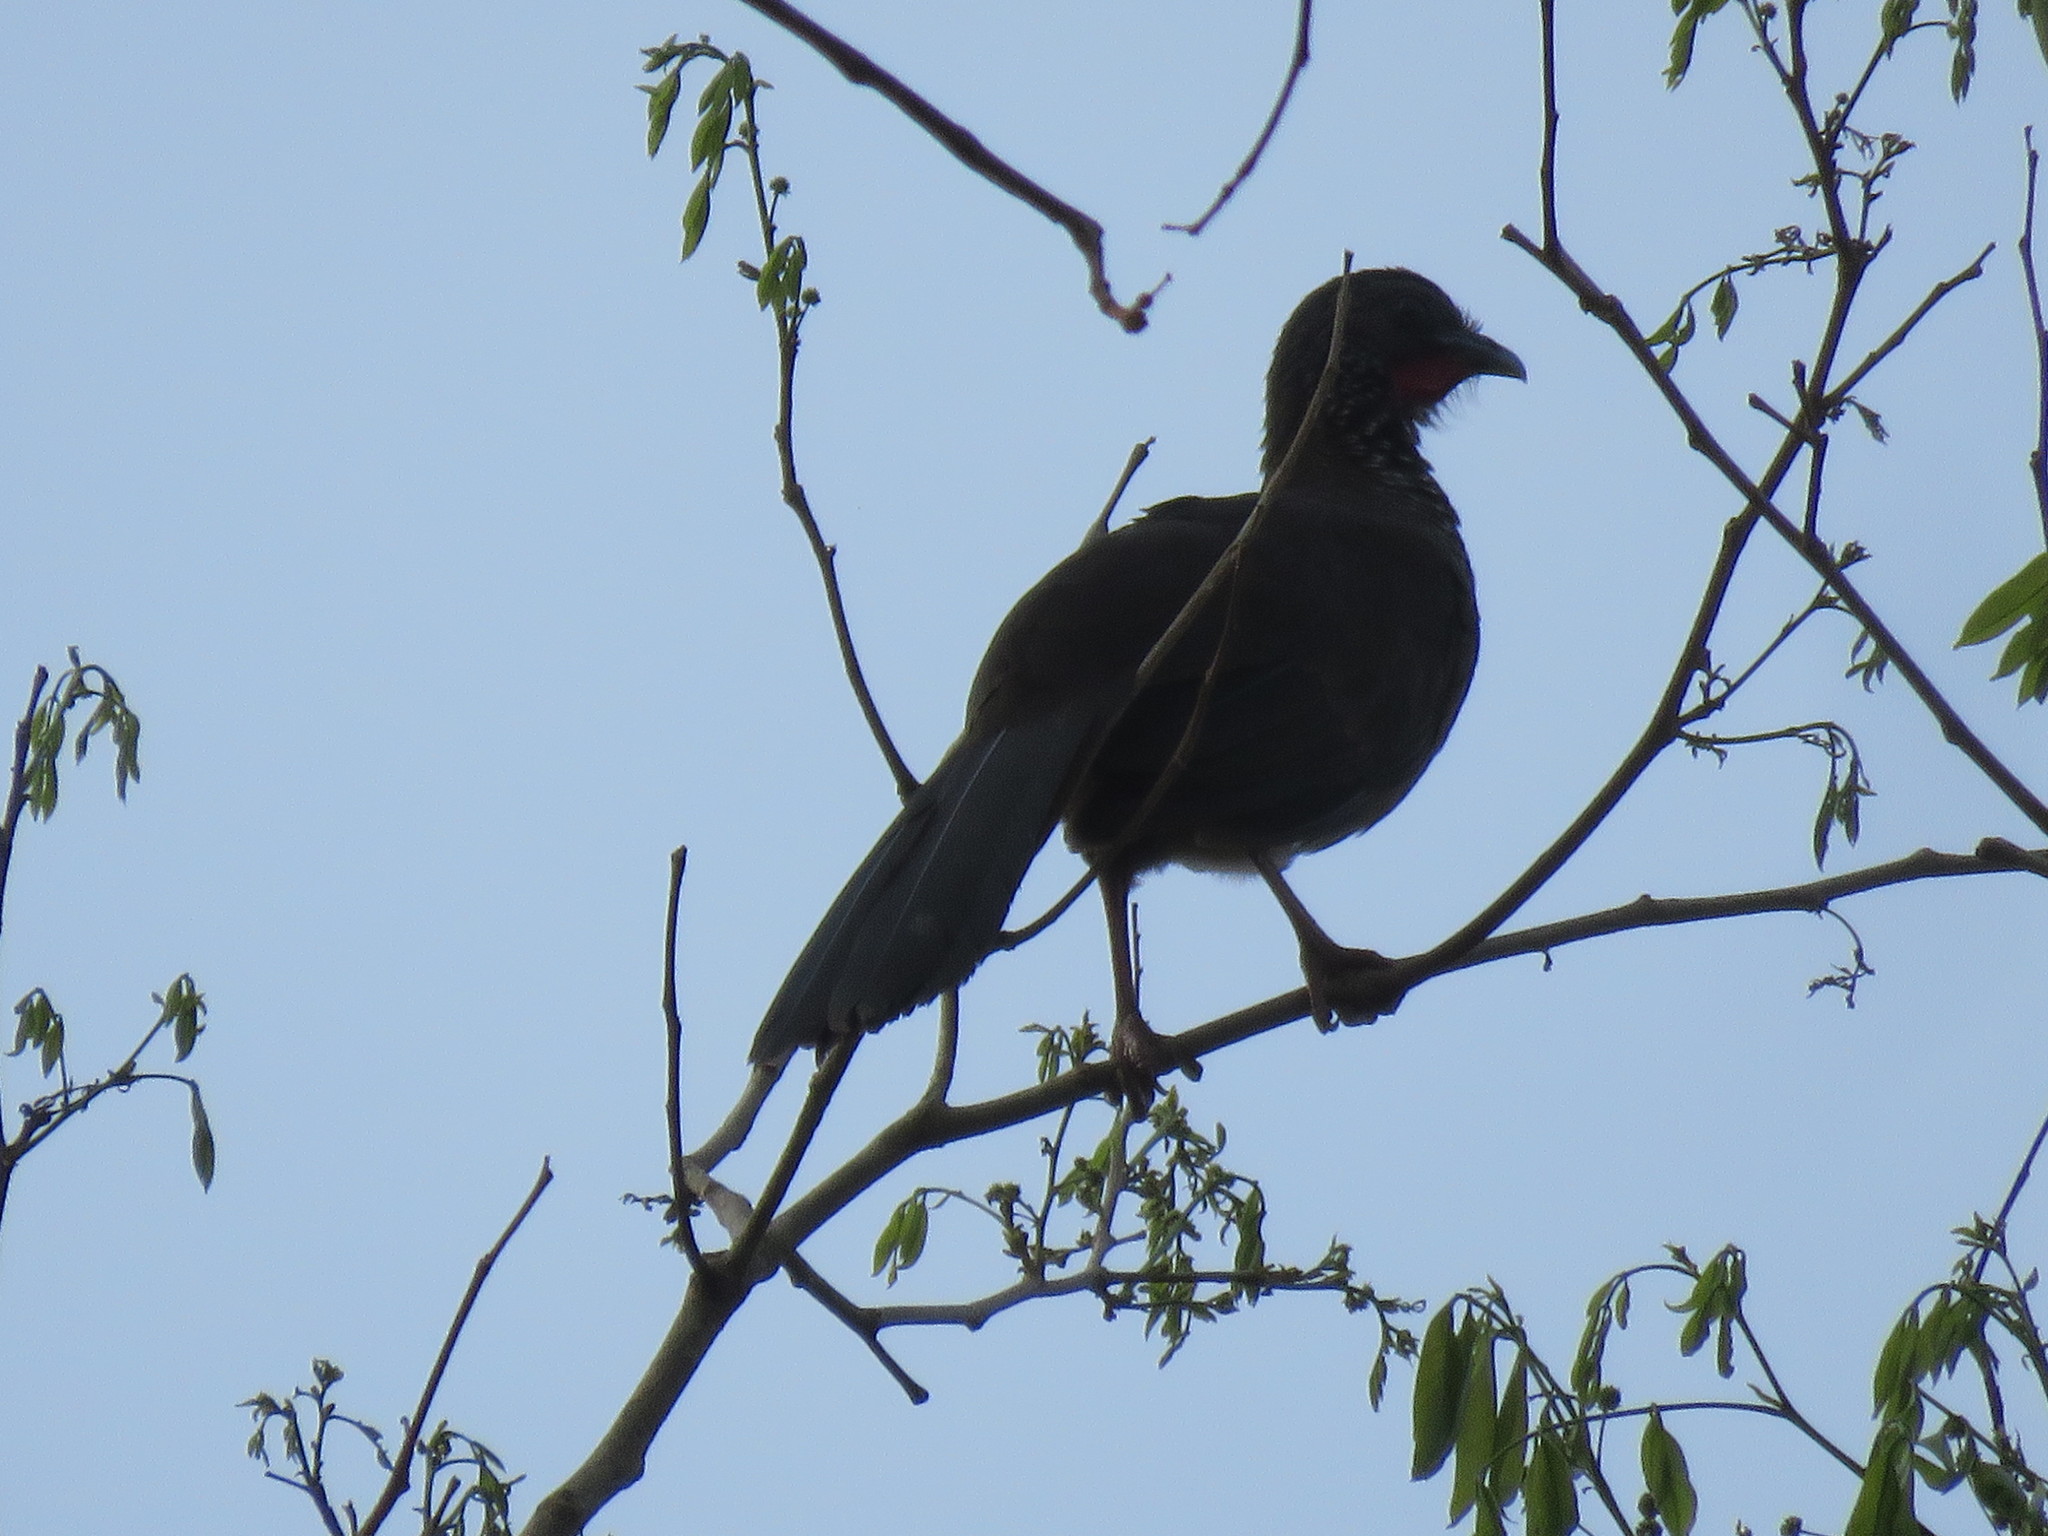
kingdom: Animalia
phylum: Chordata
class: Aves
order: Galliformes
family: Cracidae
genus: Ortalis
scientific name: Ortalis guttata
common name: Speckled chachalaca
